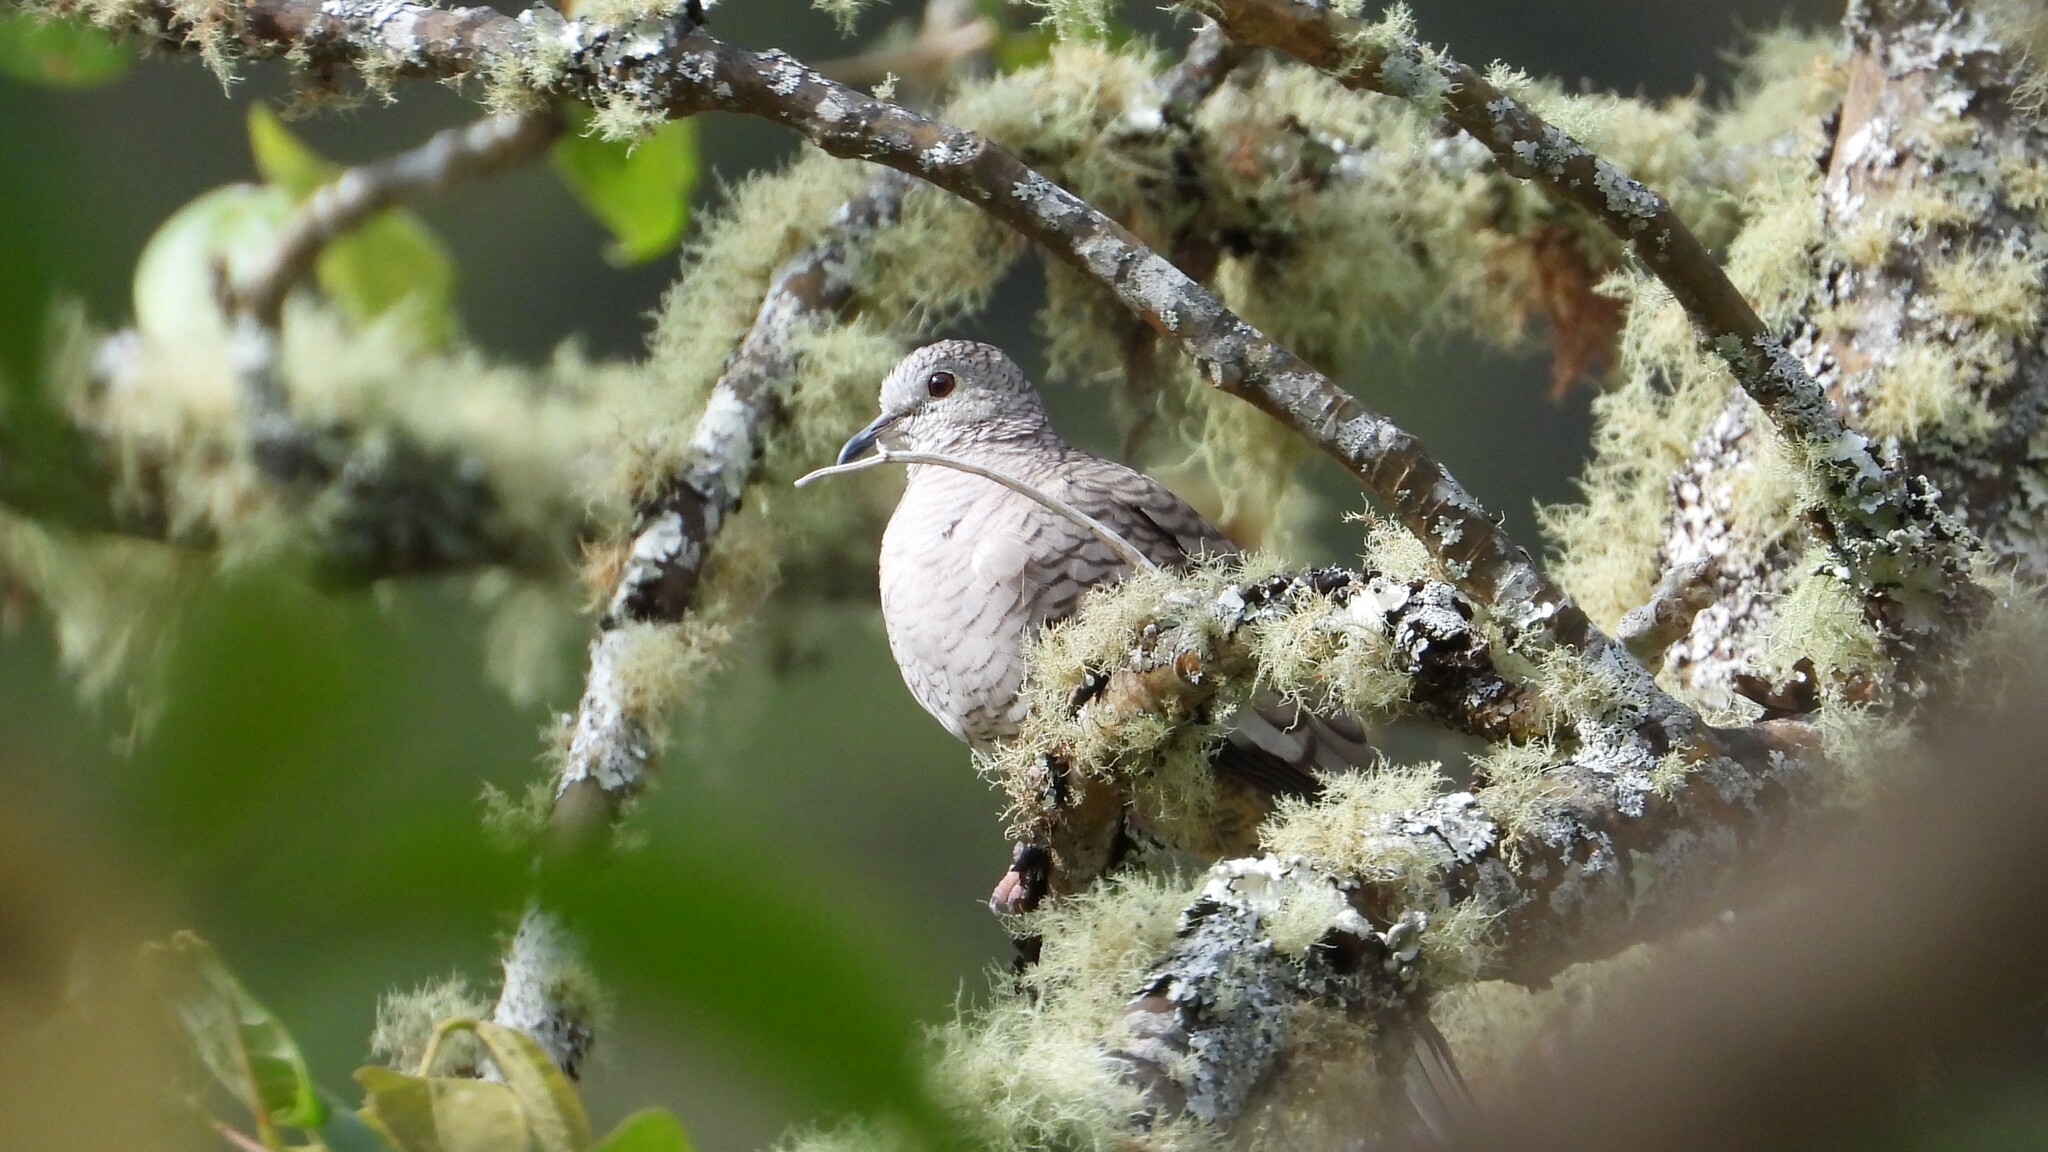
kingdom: Animalia
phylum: Chordata
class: Aves
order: Columbiformes
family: Columbidae
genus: Columbina
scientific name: Columbina inca
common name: Inca dove
